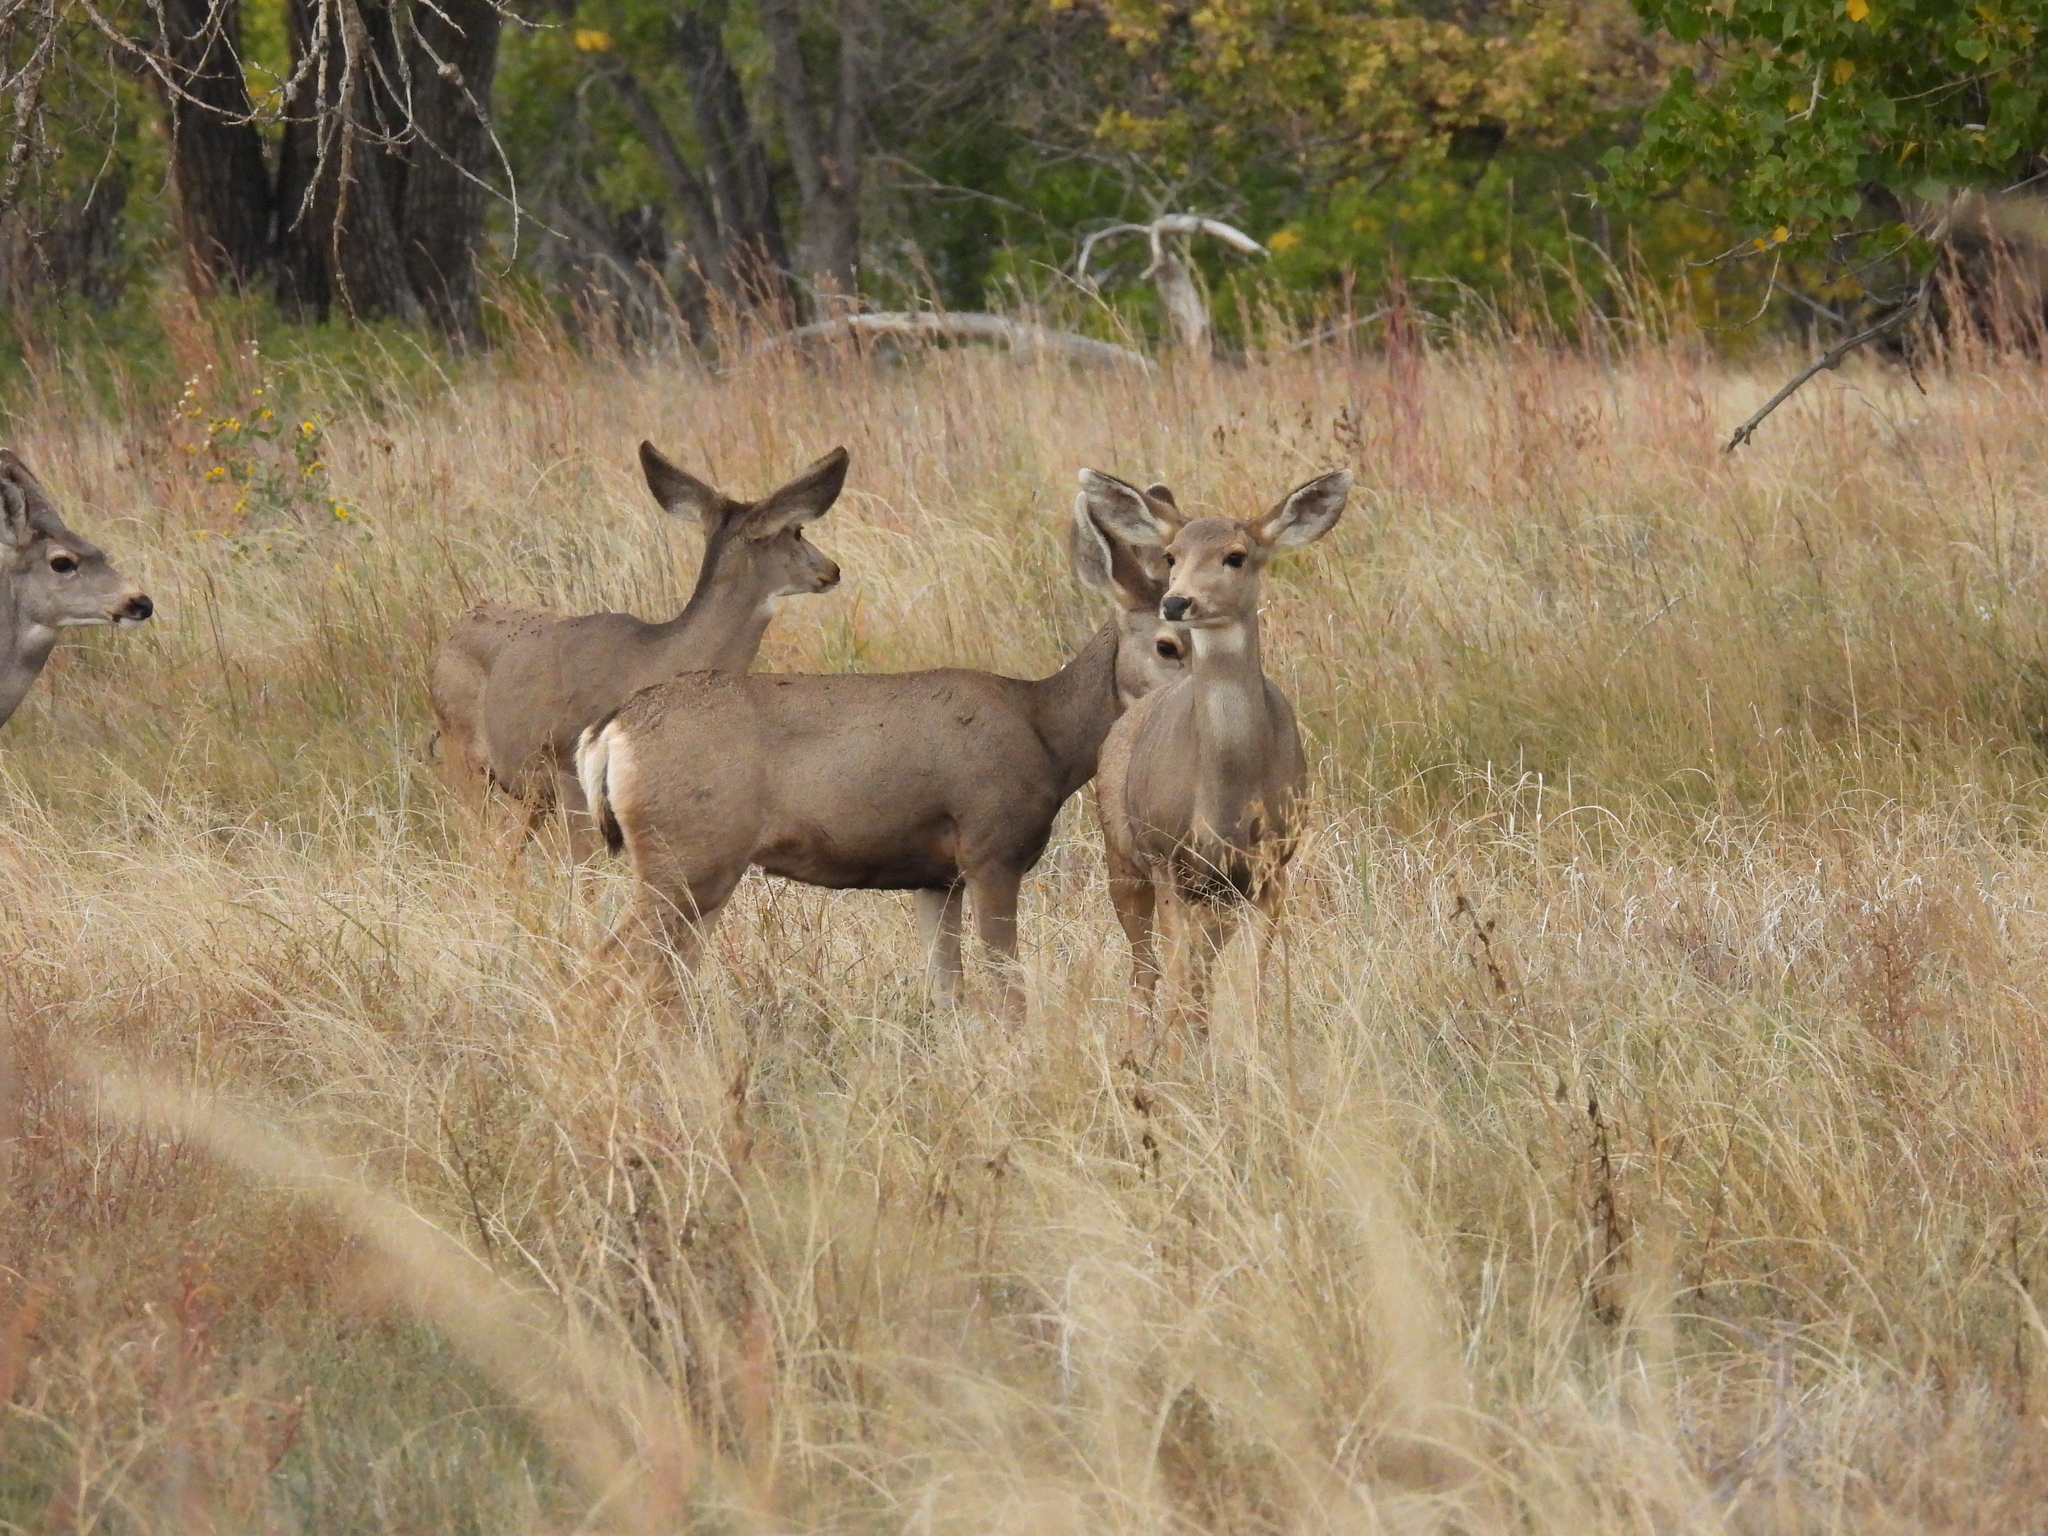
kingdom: Animalia
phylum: Chordata
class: Mammalia
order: Artiodactyla
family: Cervidae
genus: Odocoileus
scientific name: Odocoileus hemionus
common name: Mule deer
